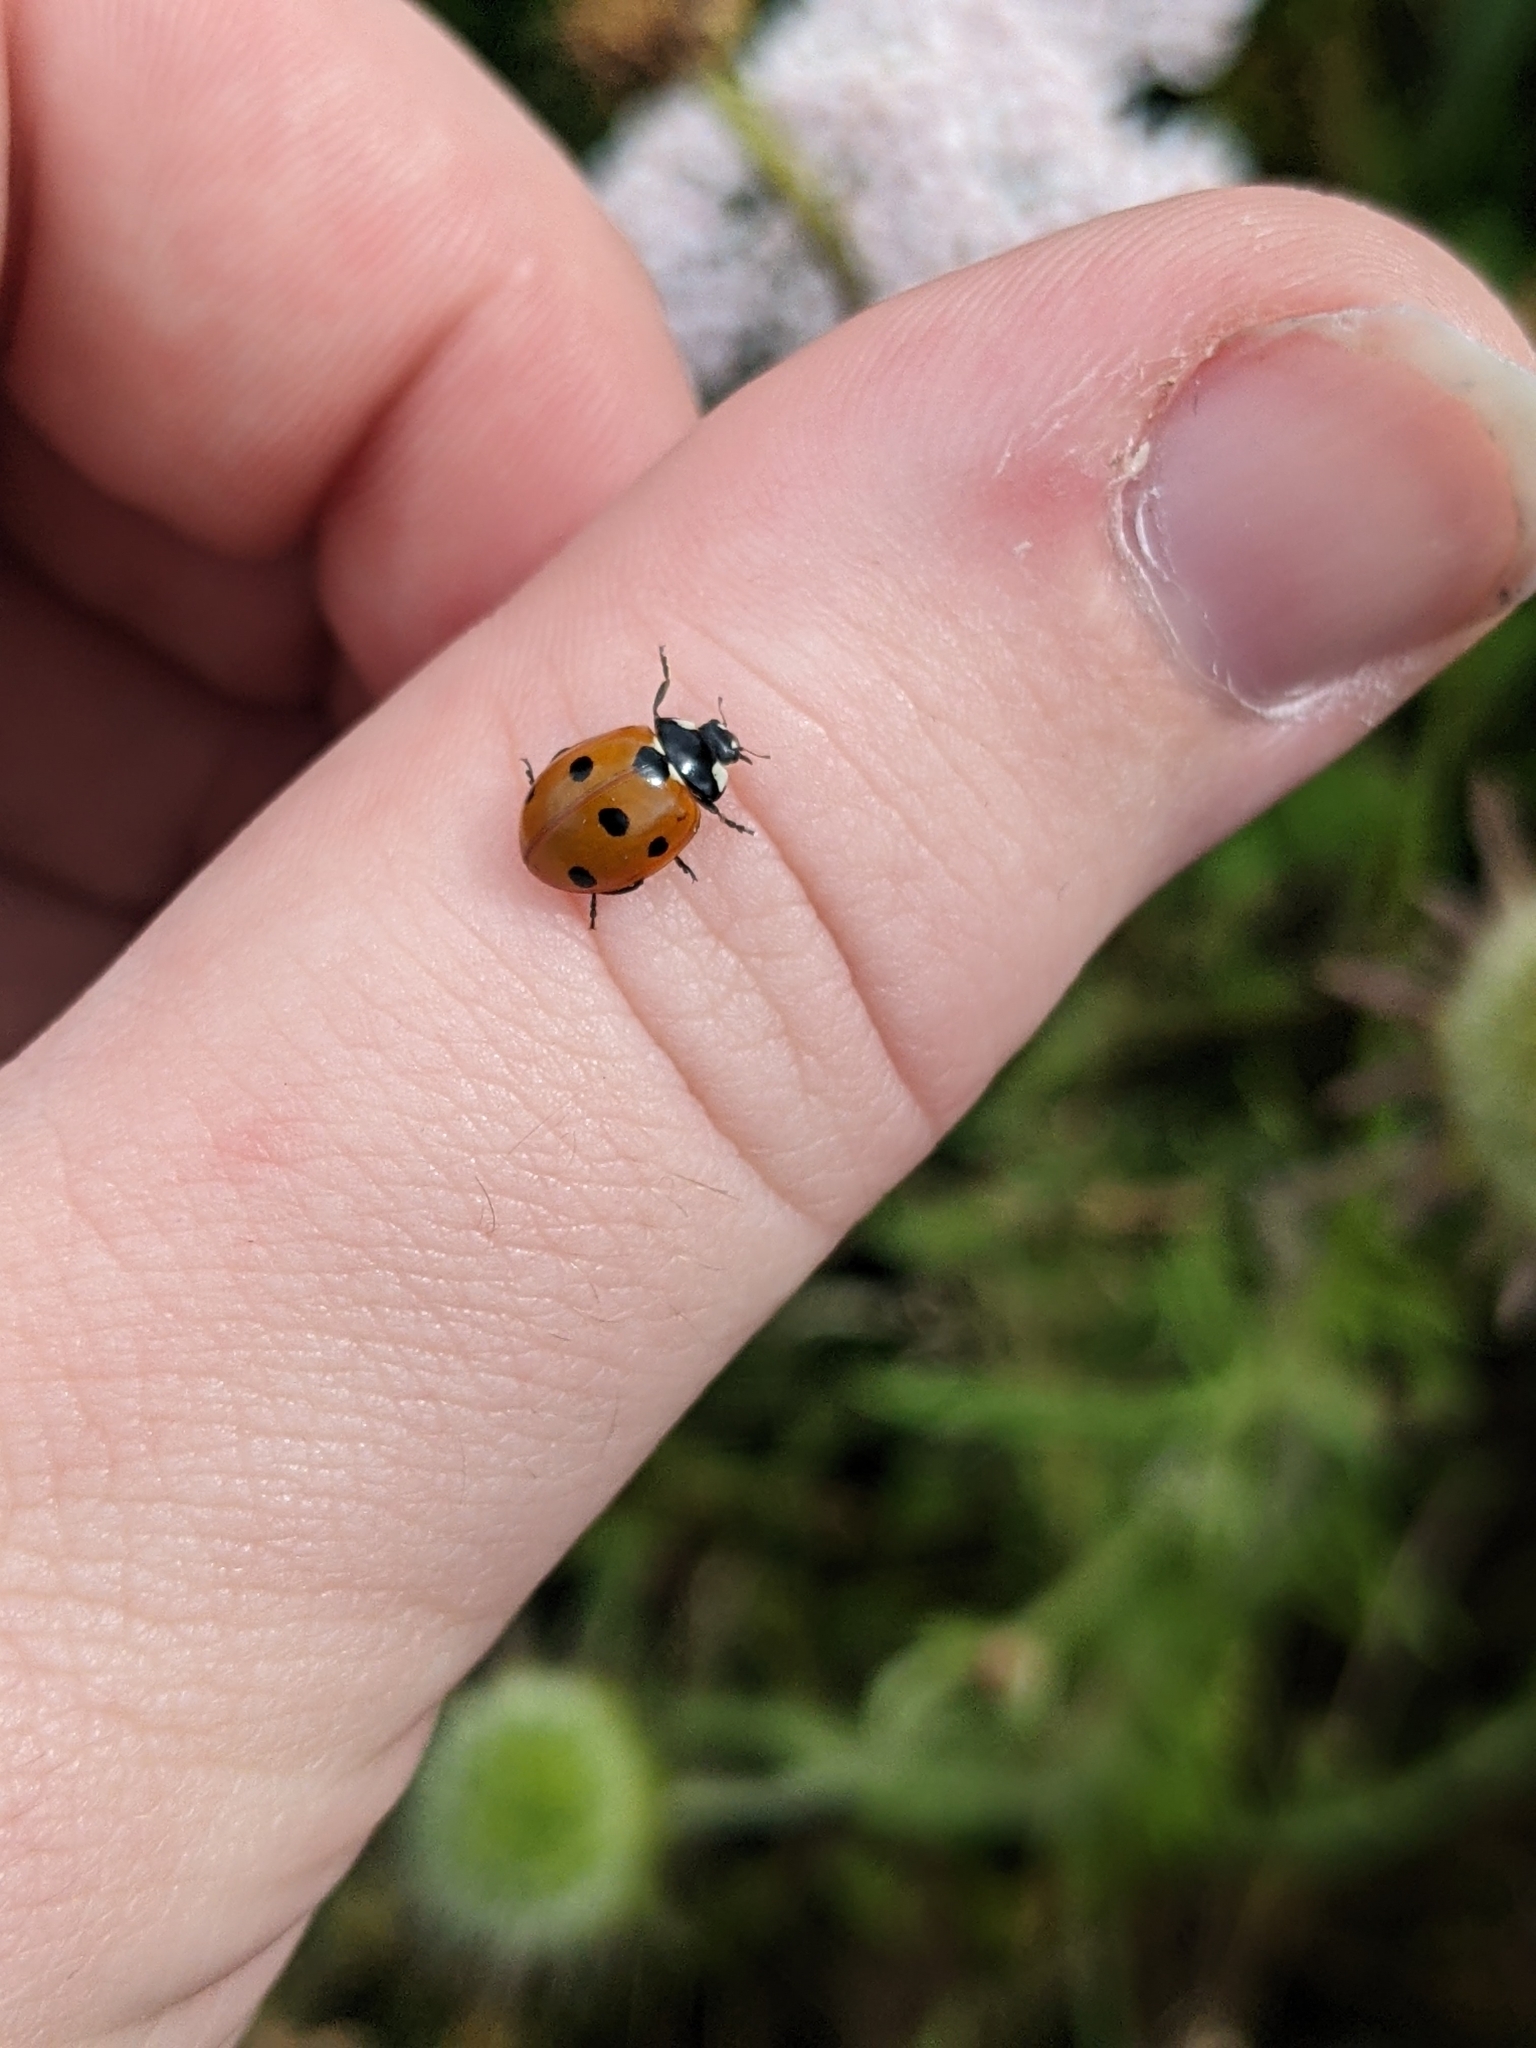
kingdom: Animalia
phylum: Arthropoda
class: Insecta
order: Coleoptera
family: Coccinellidae
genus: Coccinella
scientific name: Coccinella septempunctata
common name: Sevenspotted lady beetle
